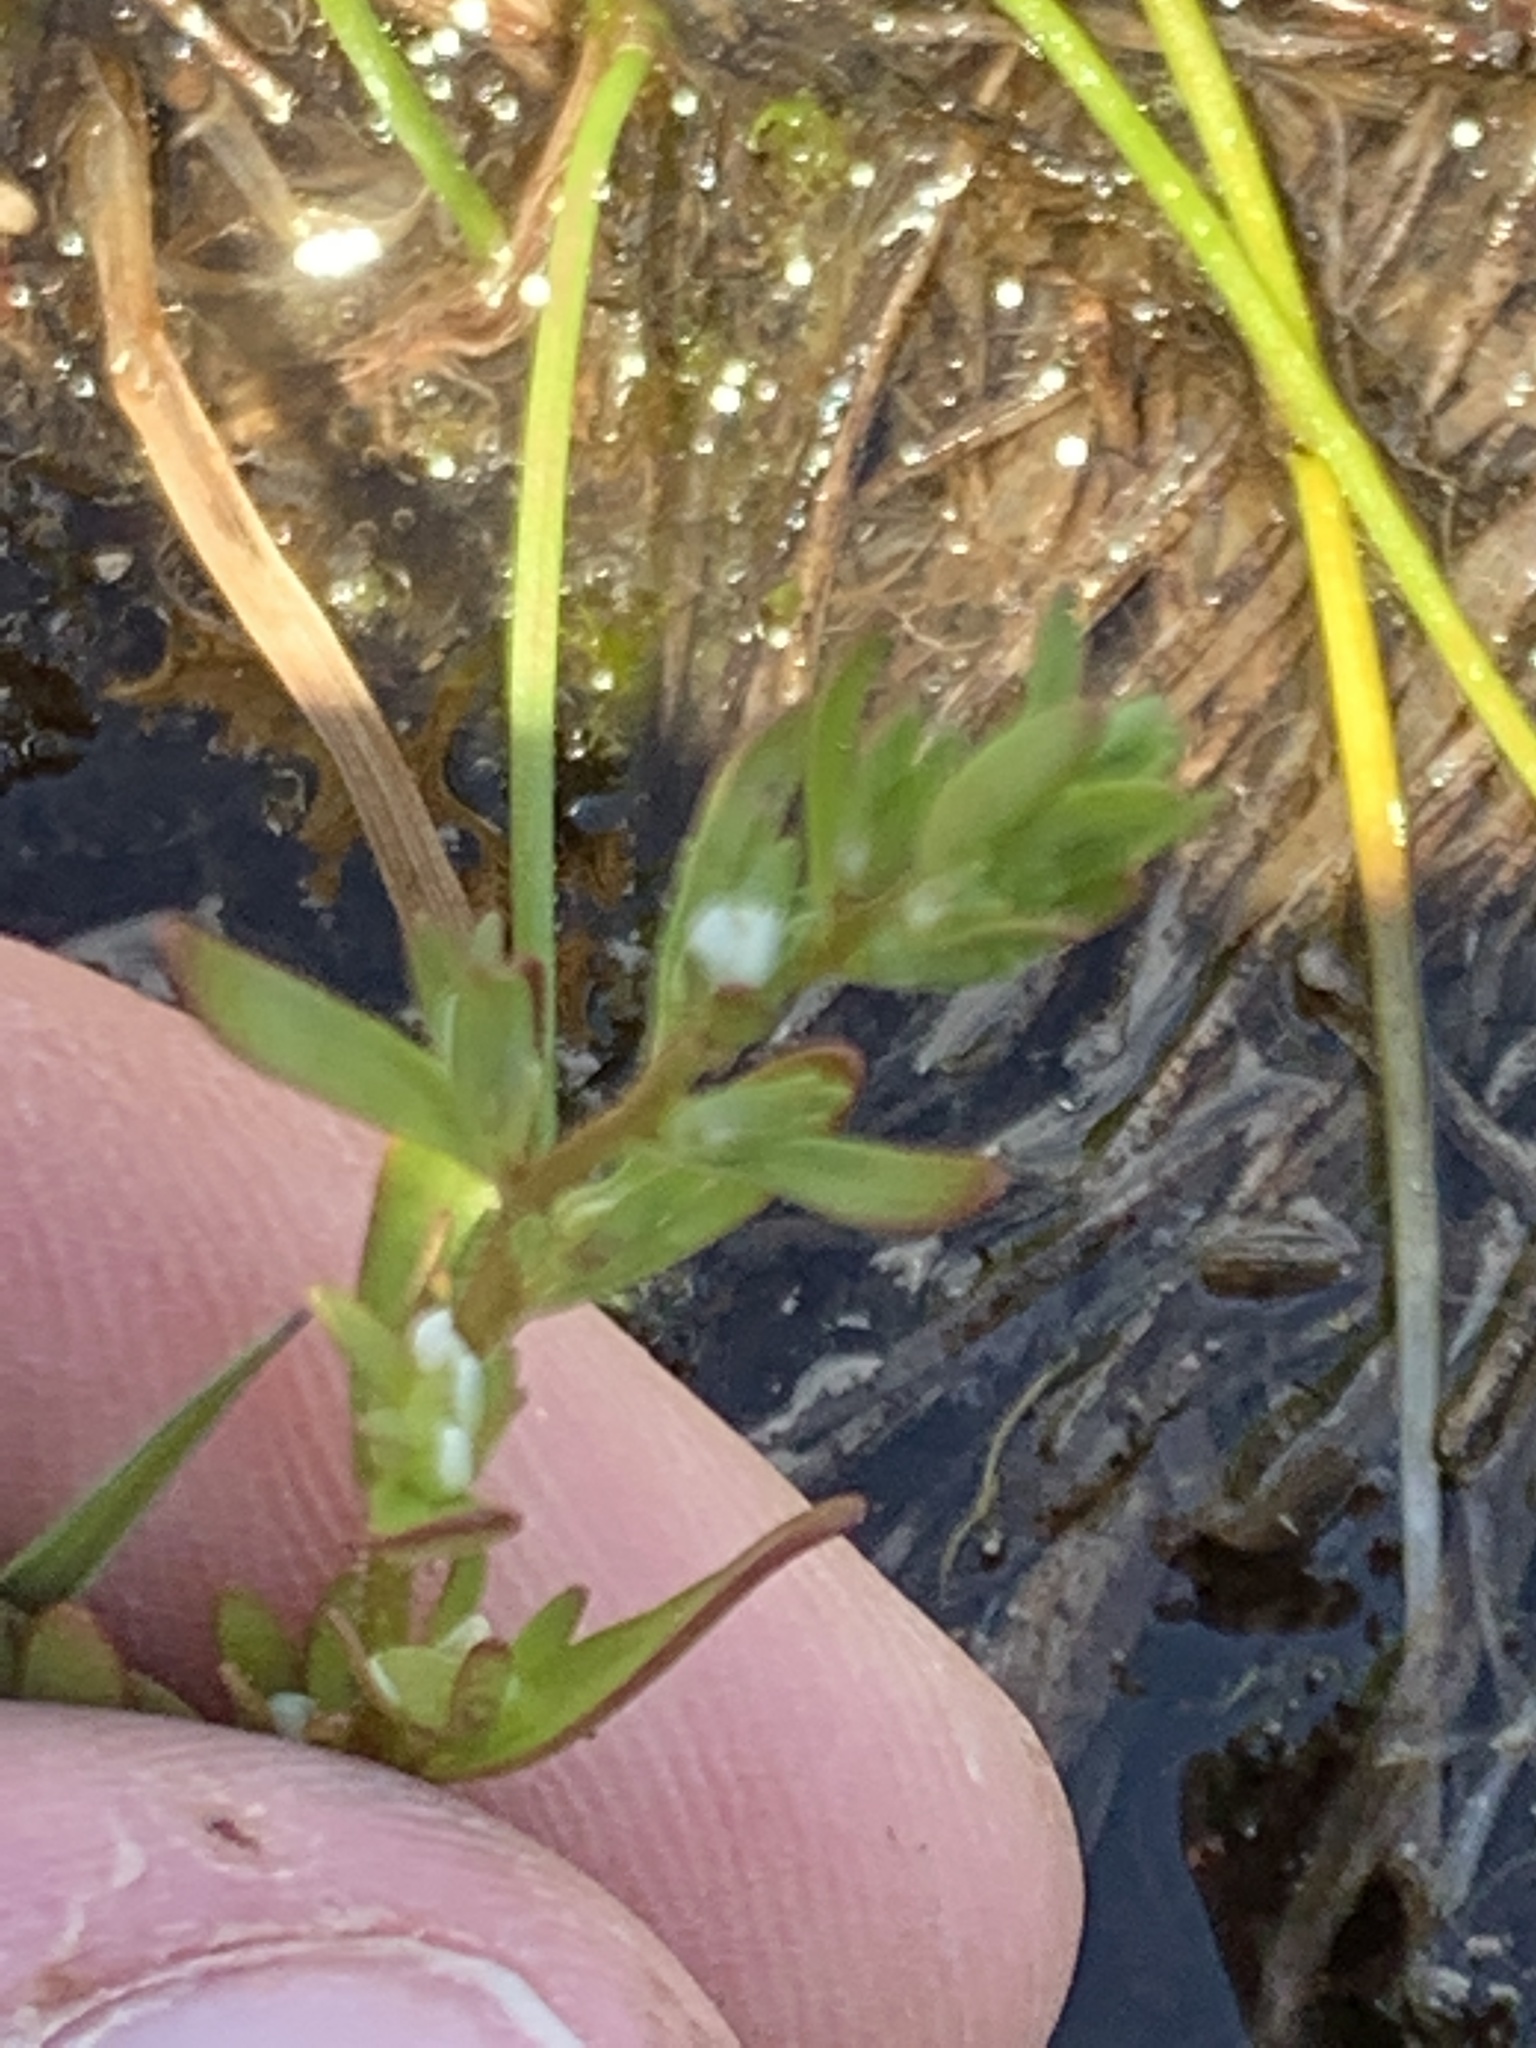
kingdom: Plantae
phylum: Tracheophyta
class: Magnoliopsida
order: Lamiales
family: Plantaginaceae
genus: Veronica
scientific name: Veronica peregrina
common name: Neckweed
